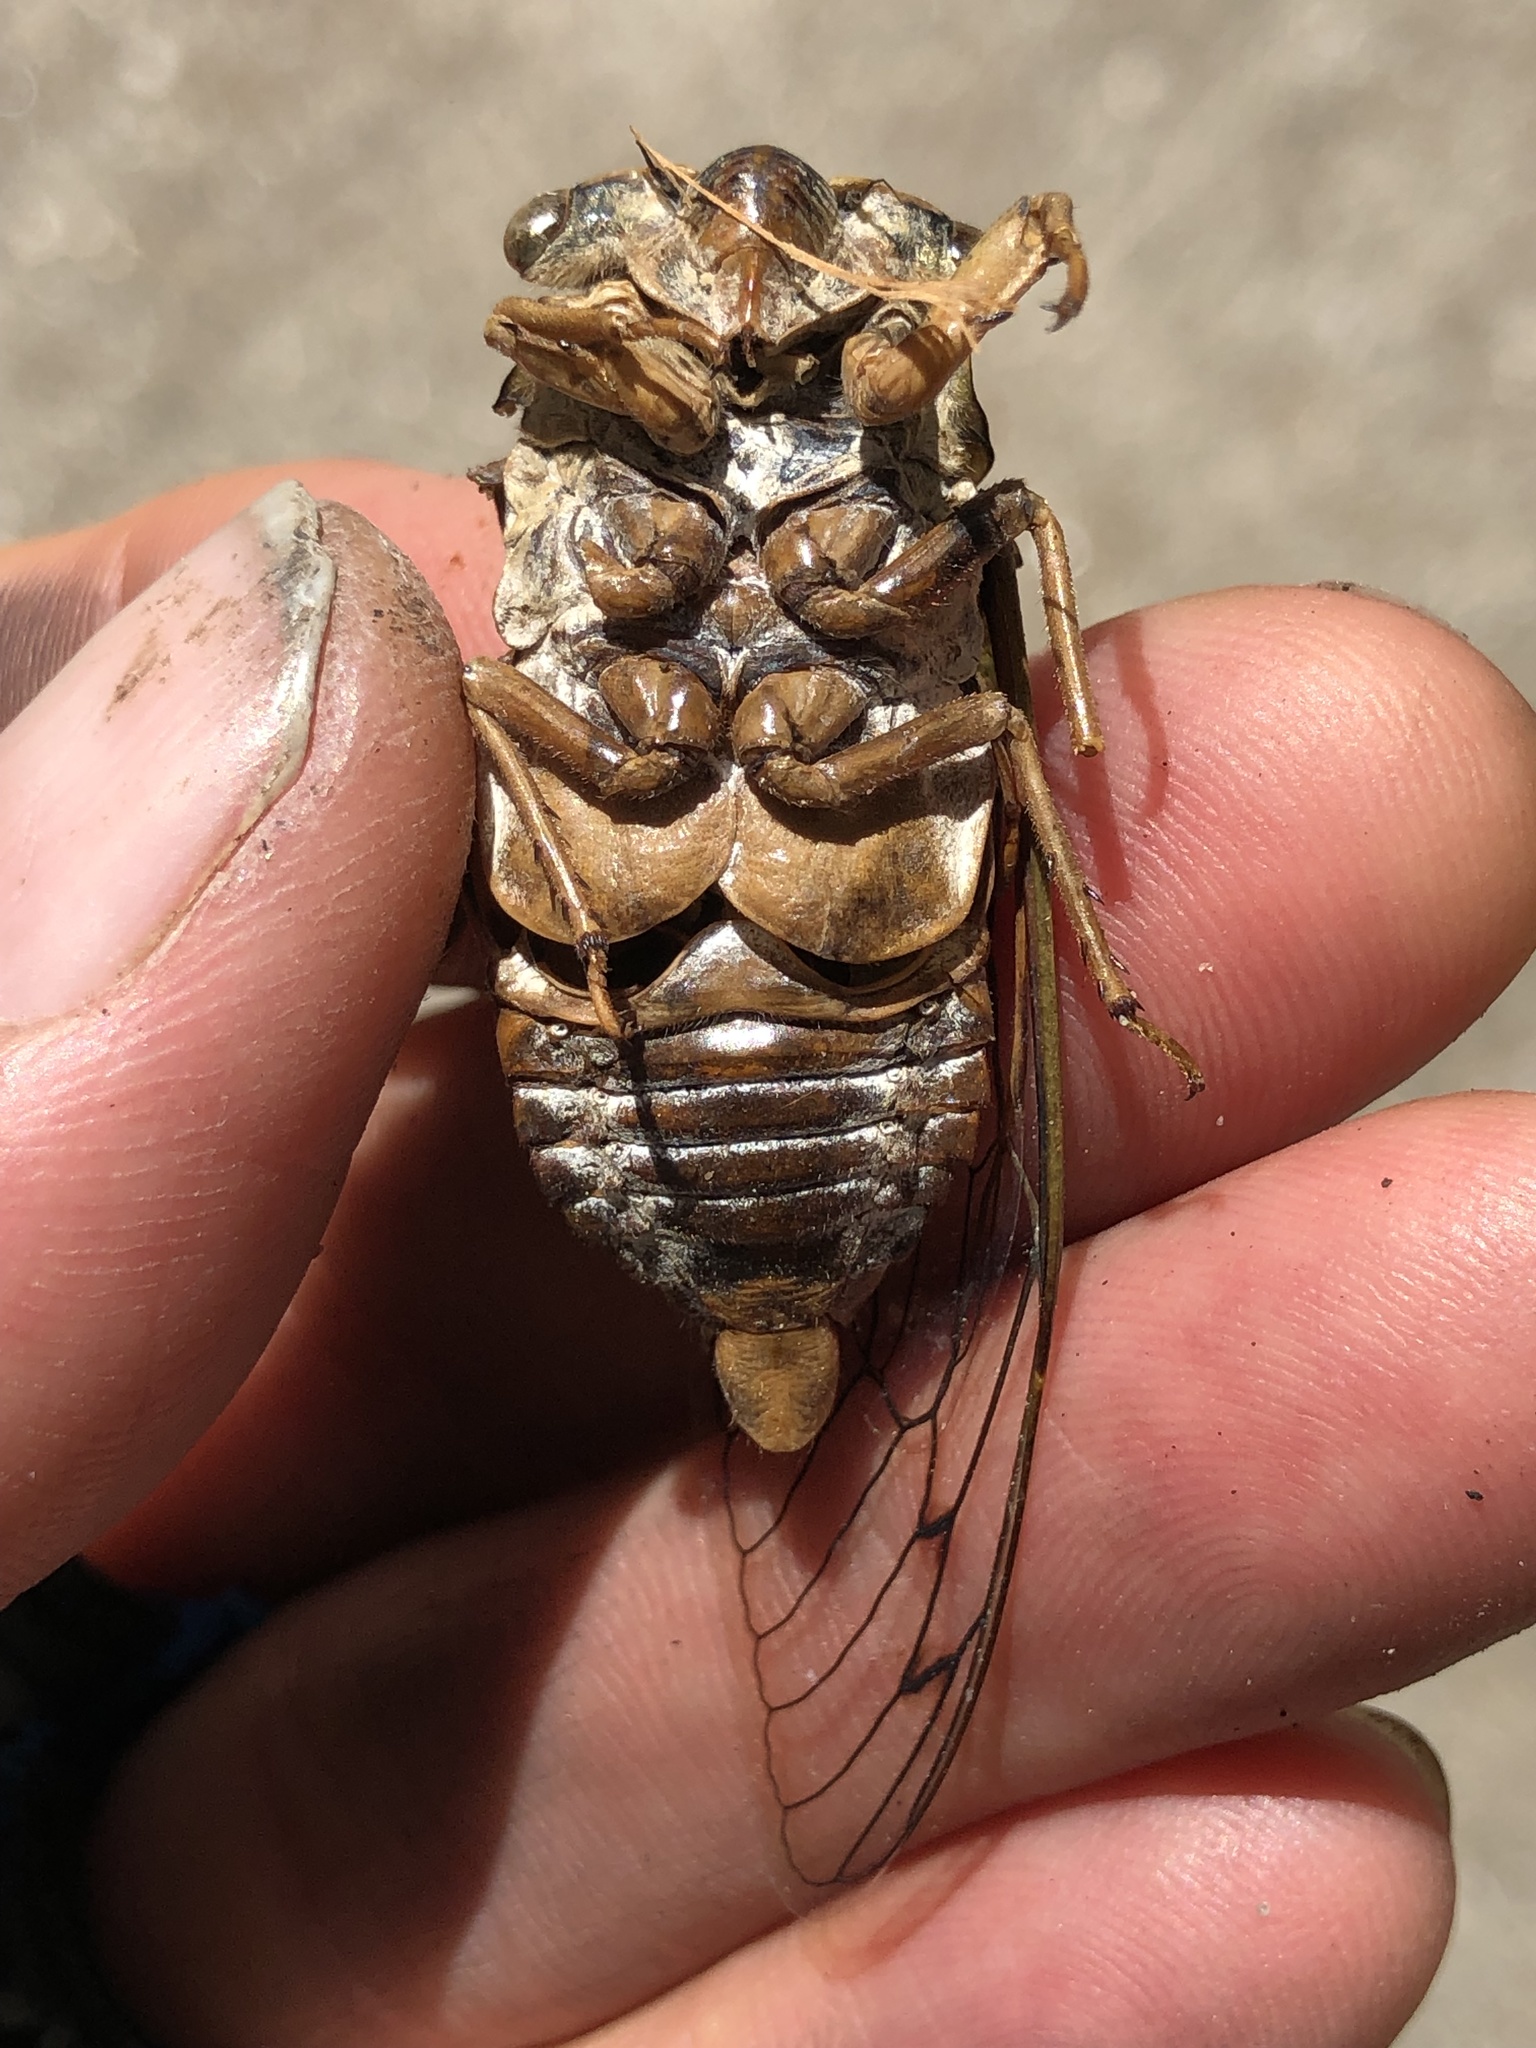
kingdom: Animalia
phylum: Arthropoda
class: Insecta
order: Hemiptera
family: Cicadidae
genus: Megatibicen
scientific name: Megatibicen resh
